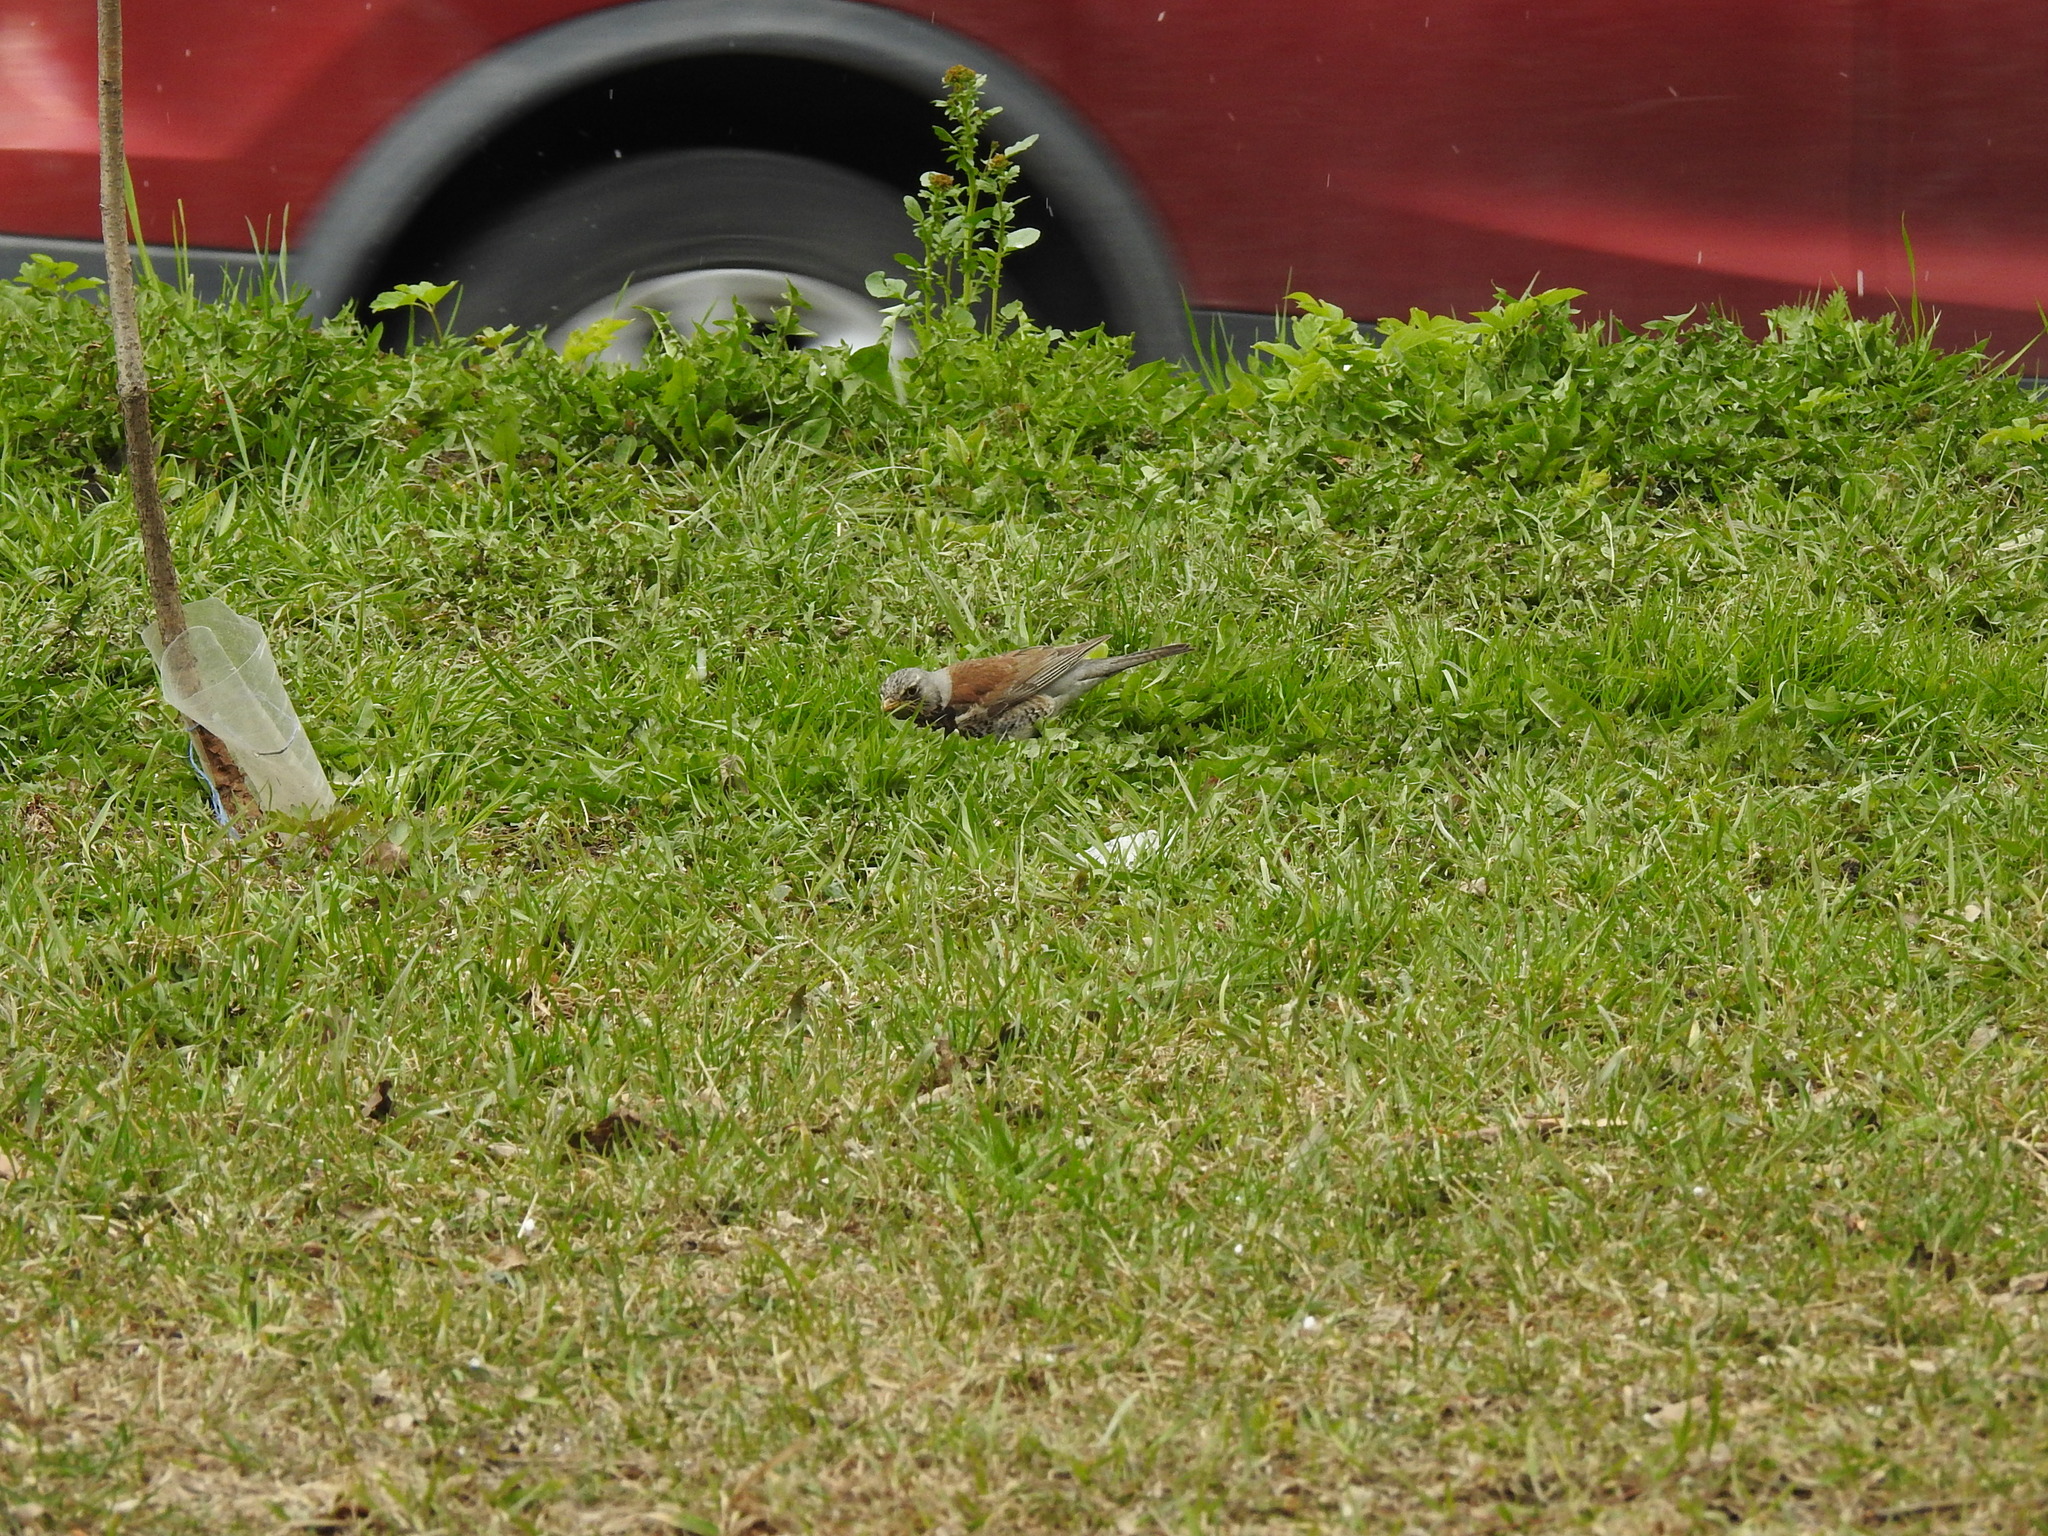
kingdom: Animalia
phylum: Chordata
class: Aves
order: Passeriformes
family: Turdidae
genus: Turdus
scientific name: Turdus pilaris
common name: Fieldfare
